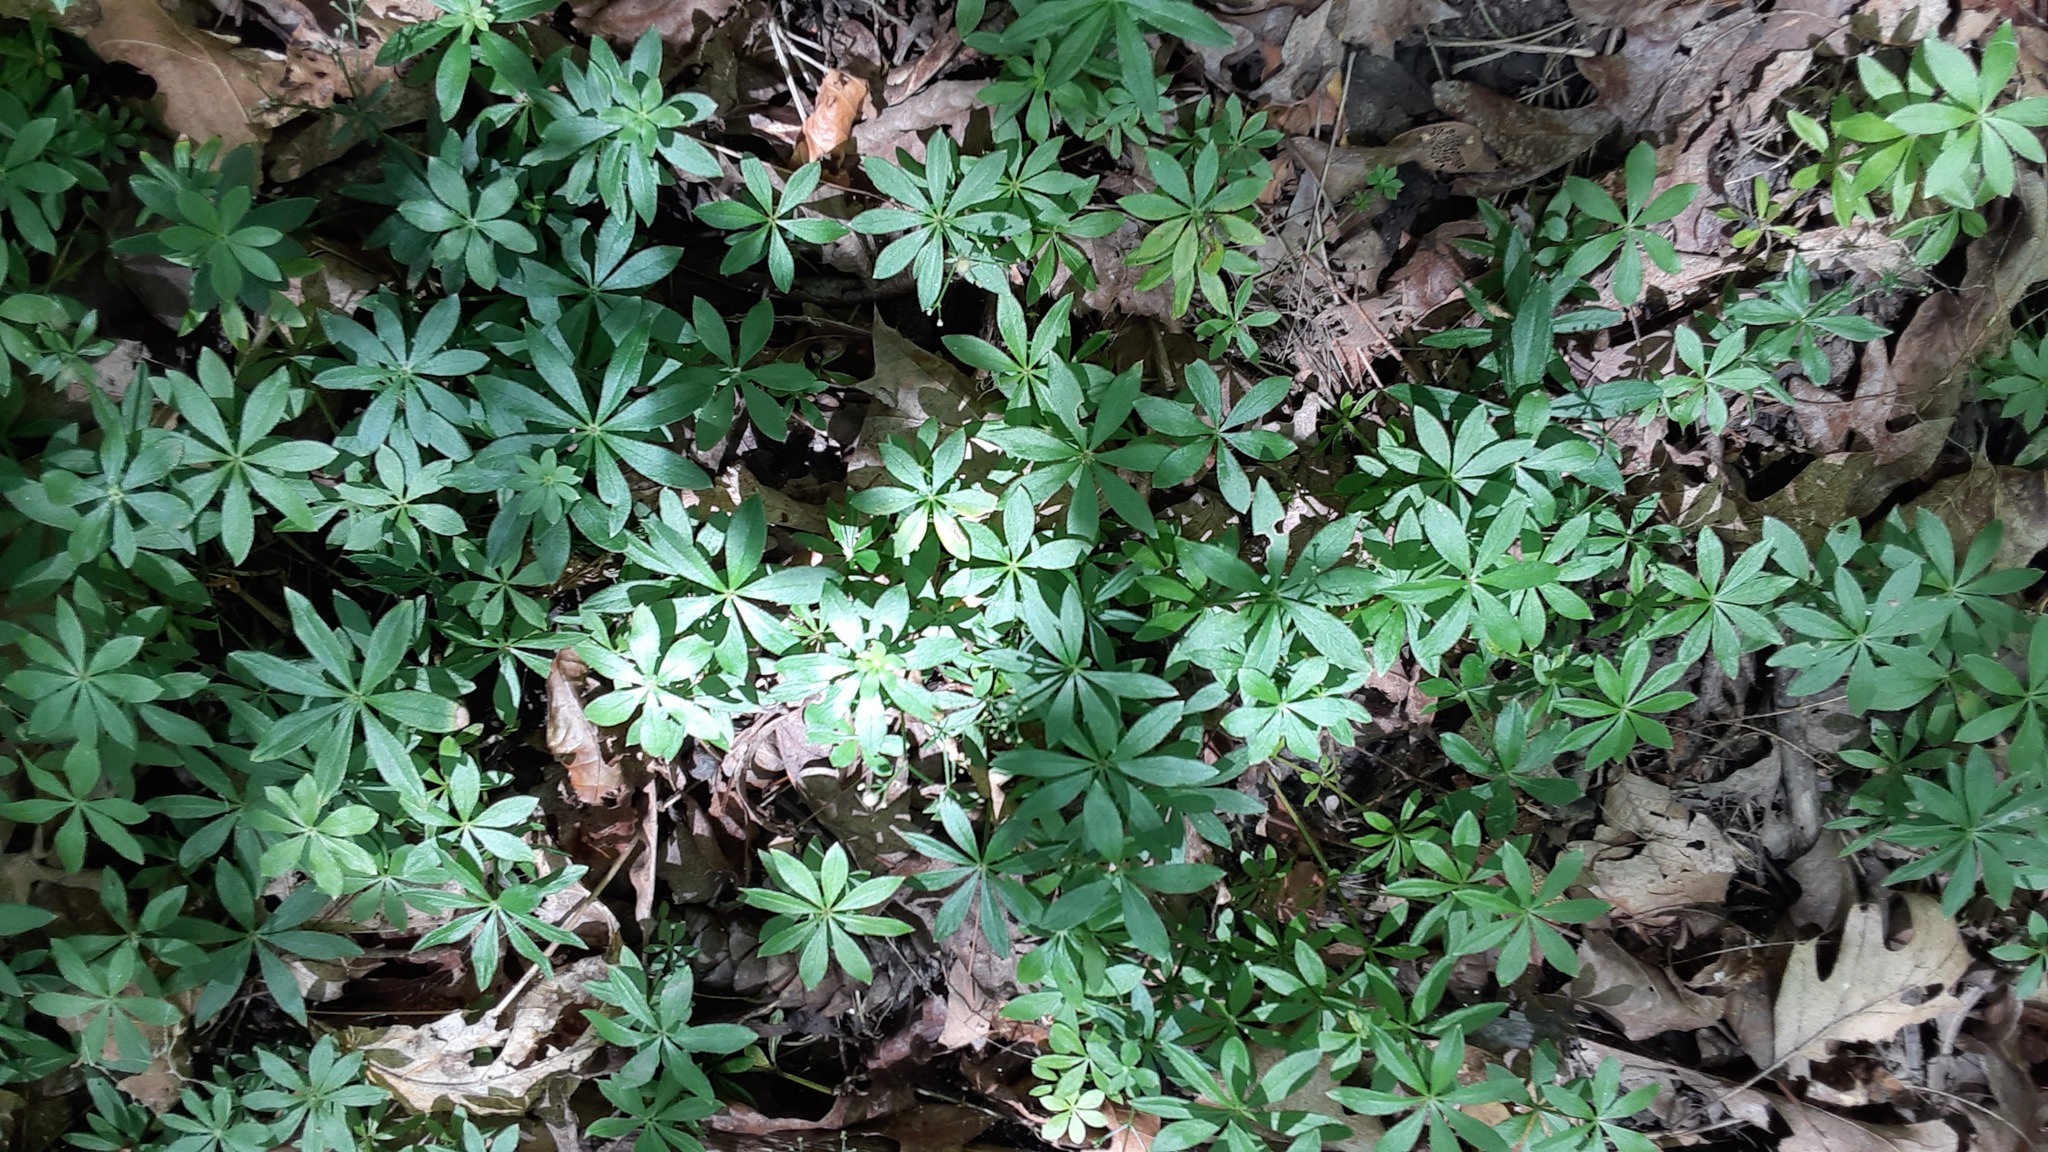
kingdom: Plantae
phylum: Tracheophyta
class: Magnoliopsida
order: Gentianales
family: Rubiaceae
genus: Galium
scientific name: Galium odoratum
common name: Sweet woodruff
